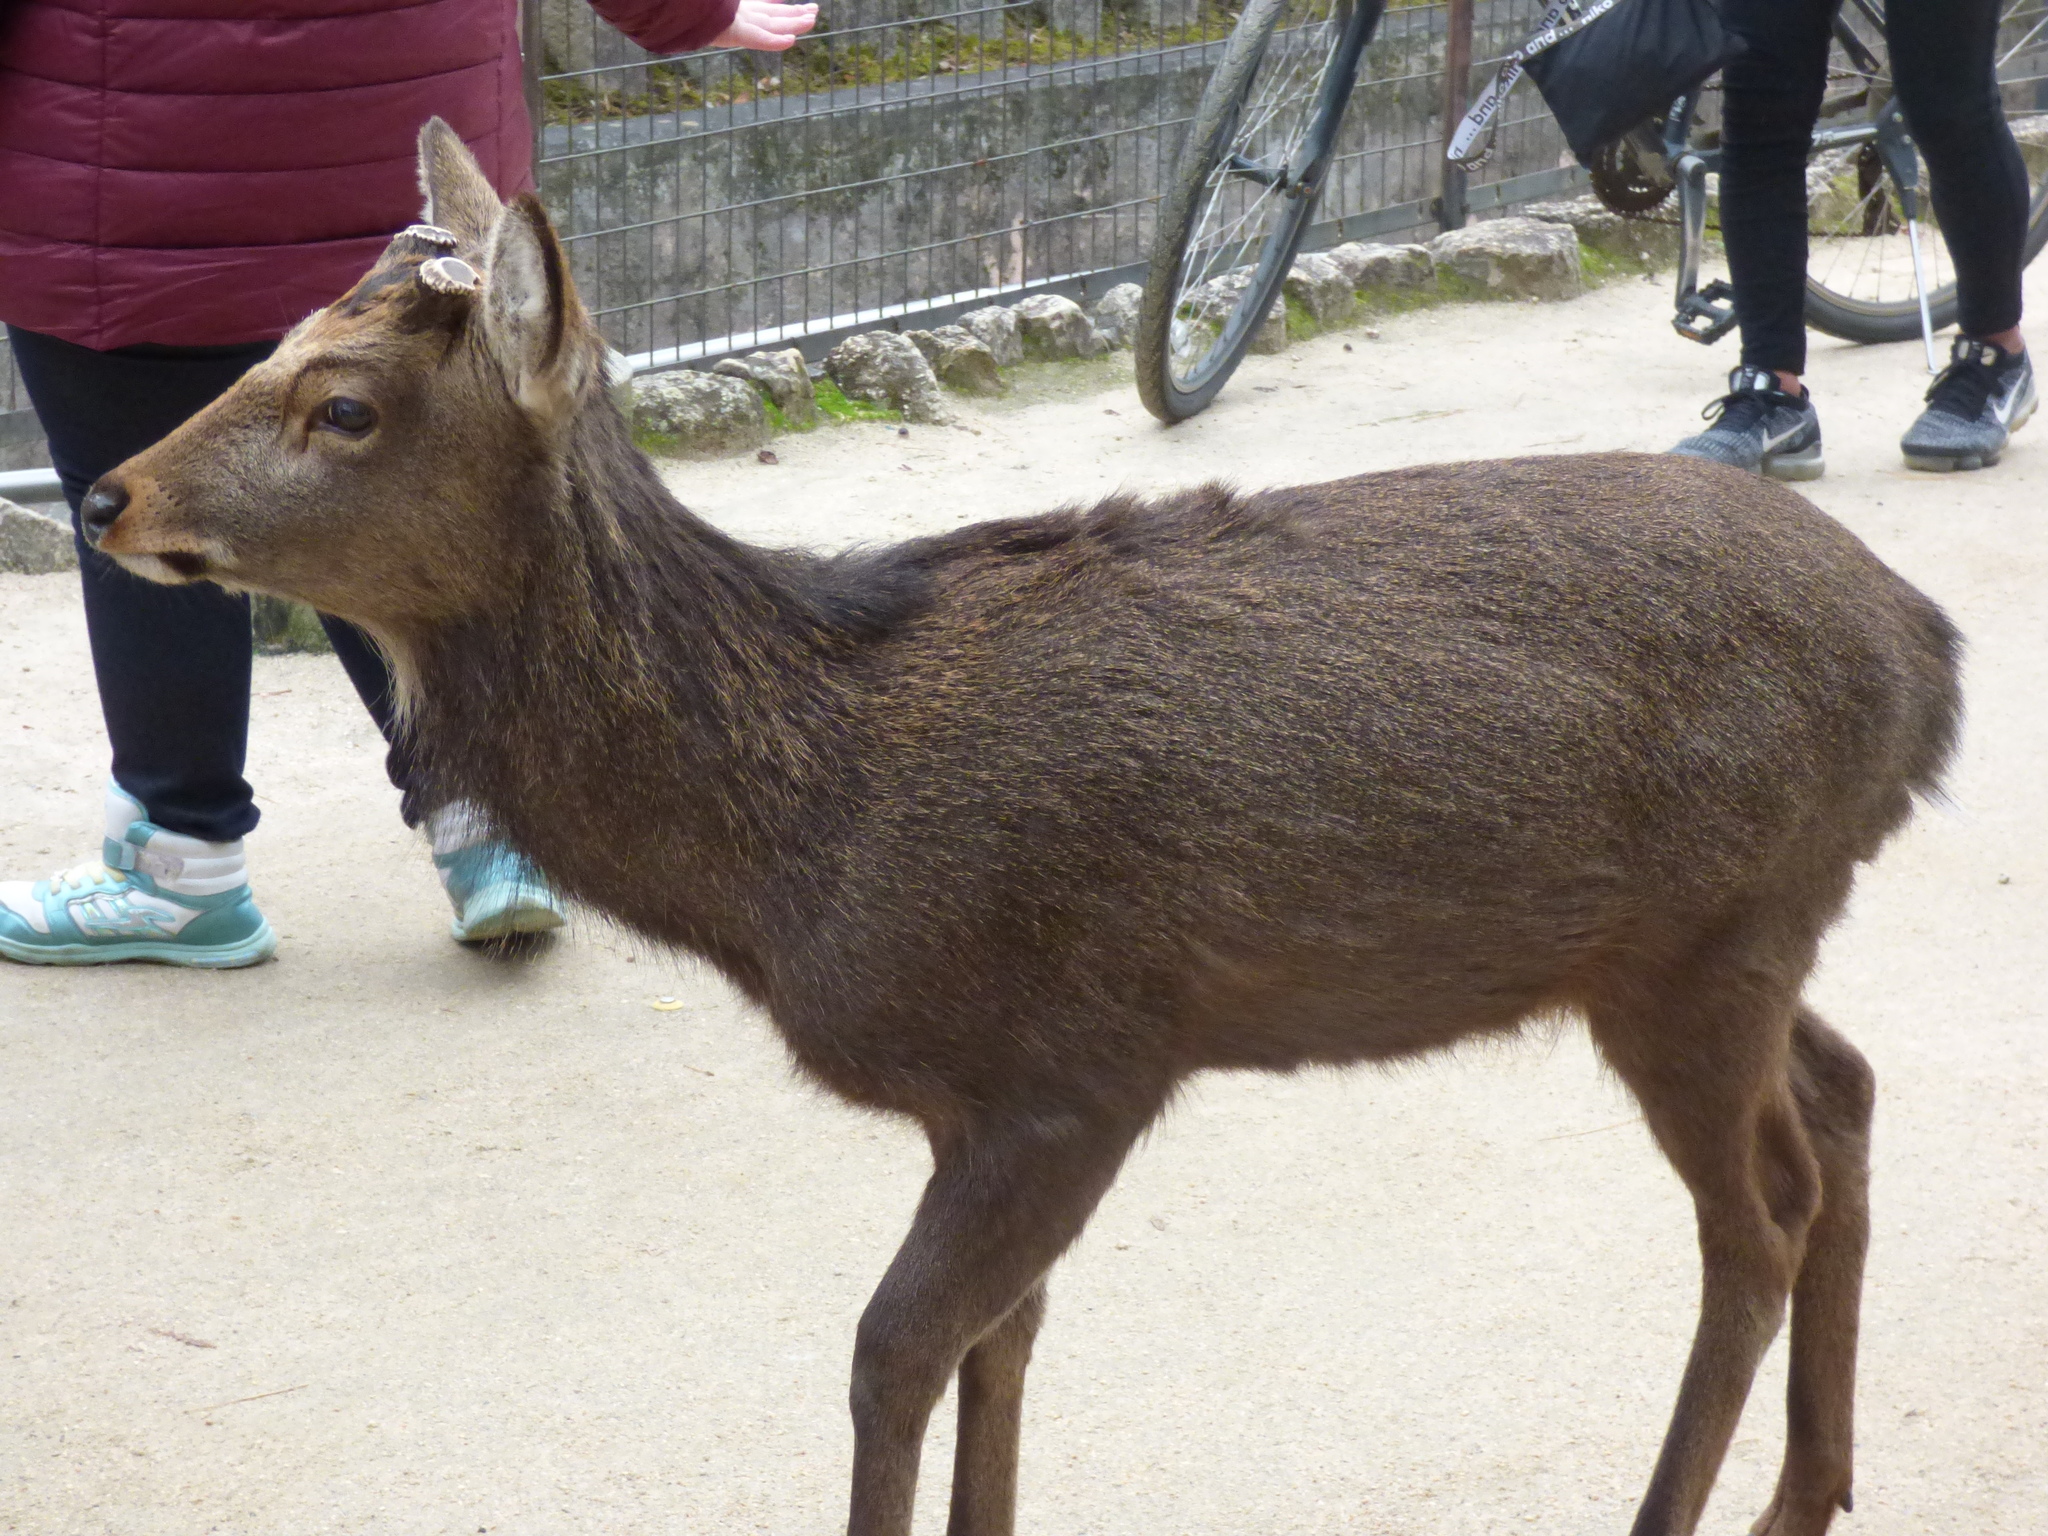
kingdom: Animalia
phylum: Chordata
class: Mammalia
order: Artiodactyla
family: Cervidae
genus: Cervus
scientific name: Cervus nippon
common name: Sika deer
